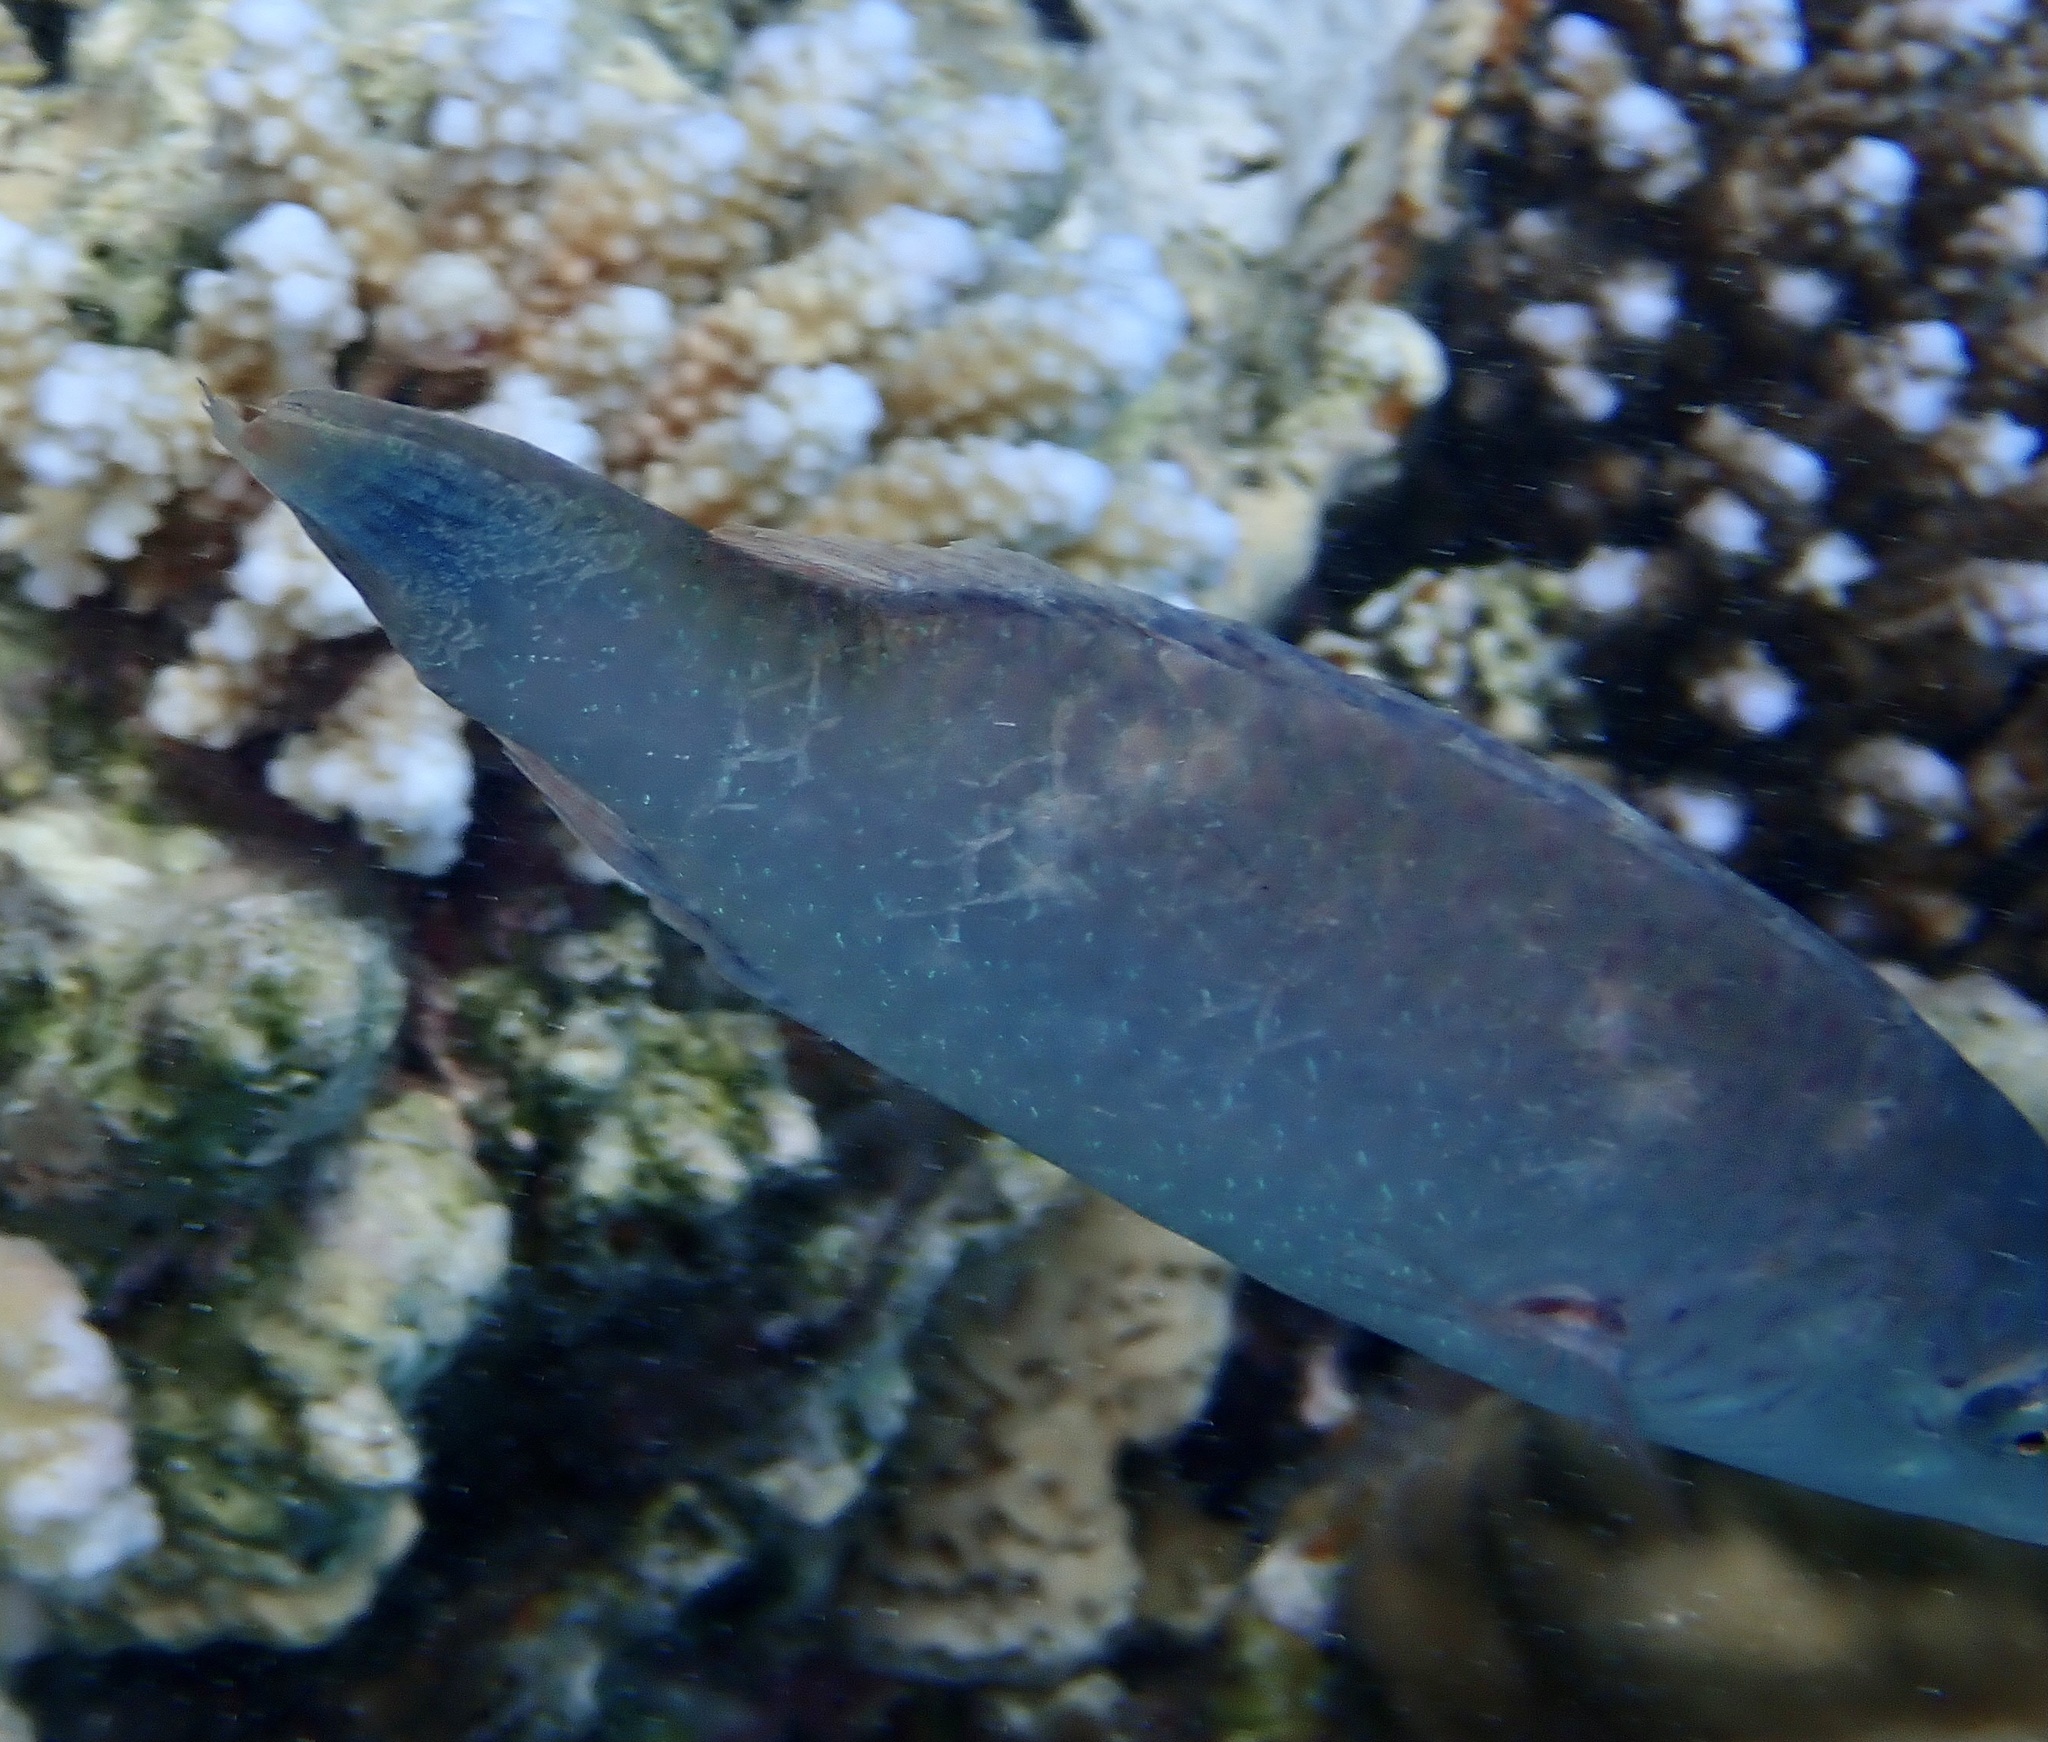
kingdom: Animalia
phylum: Chordata
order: Perciformes
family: Labridae
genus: Oxycheilinus
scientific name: Oxycheilinus digramma
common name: Bandcheek wrasse
